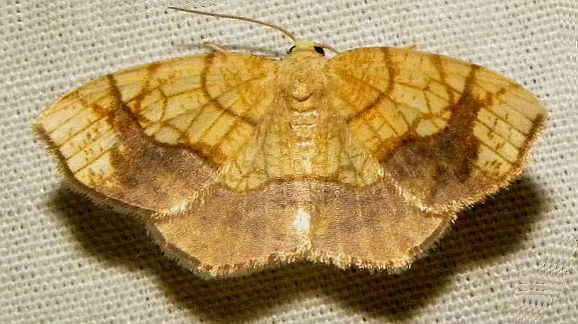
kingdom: Animalia
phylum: Arthropoda
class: Insecta
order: Lepidoptera
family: Geometridae
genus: Nematocampa
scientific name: Nematocampa resistaria
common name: Horned spanworm moth
